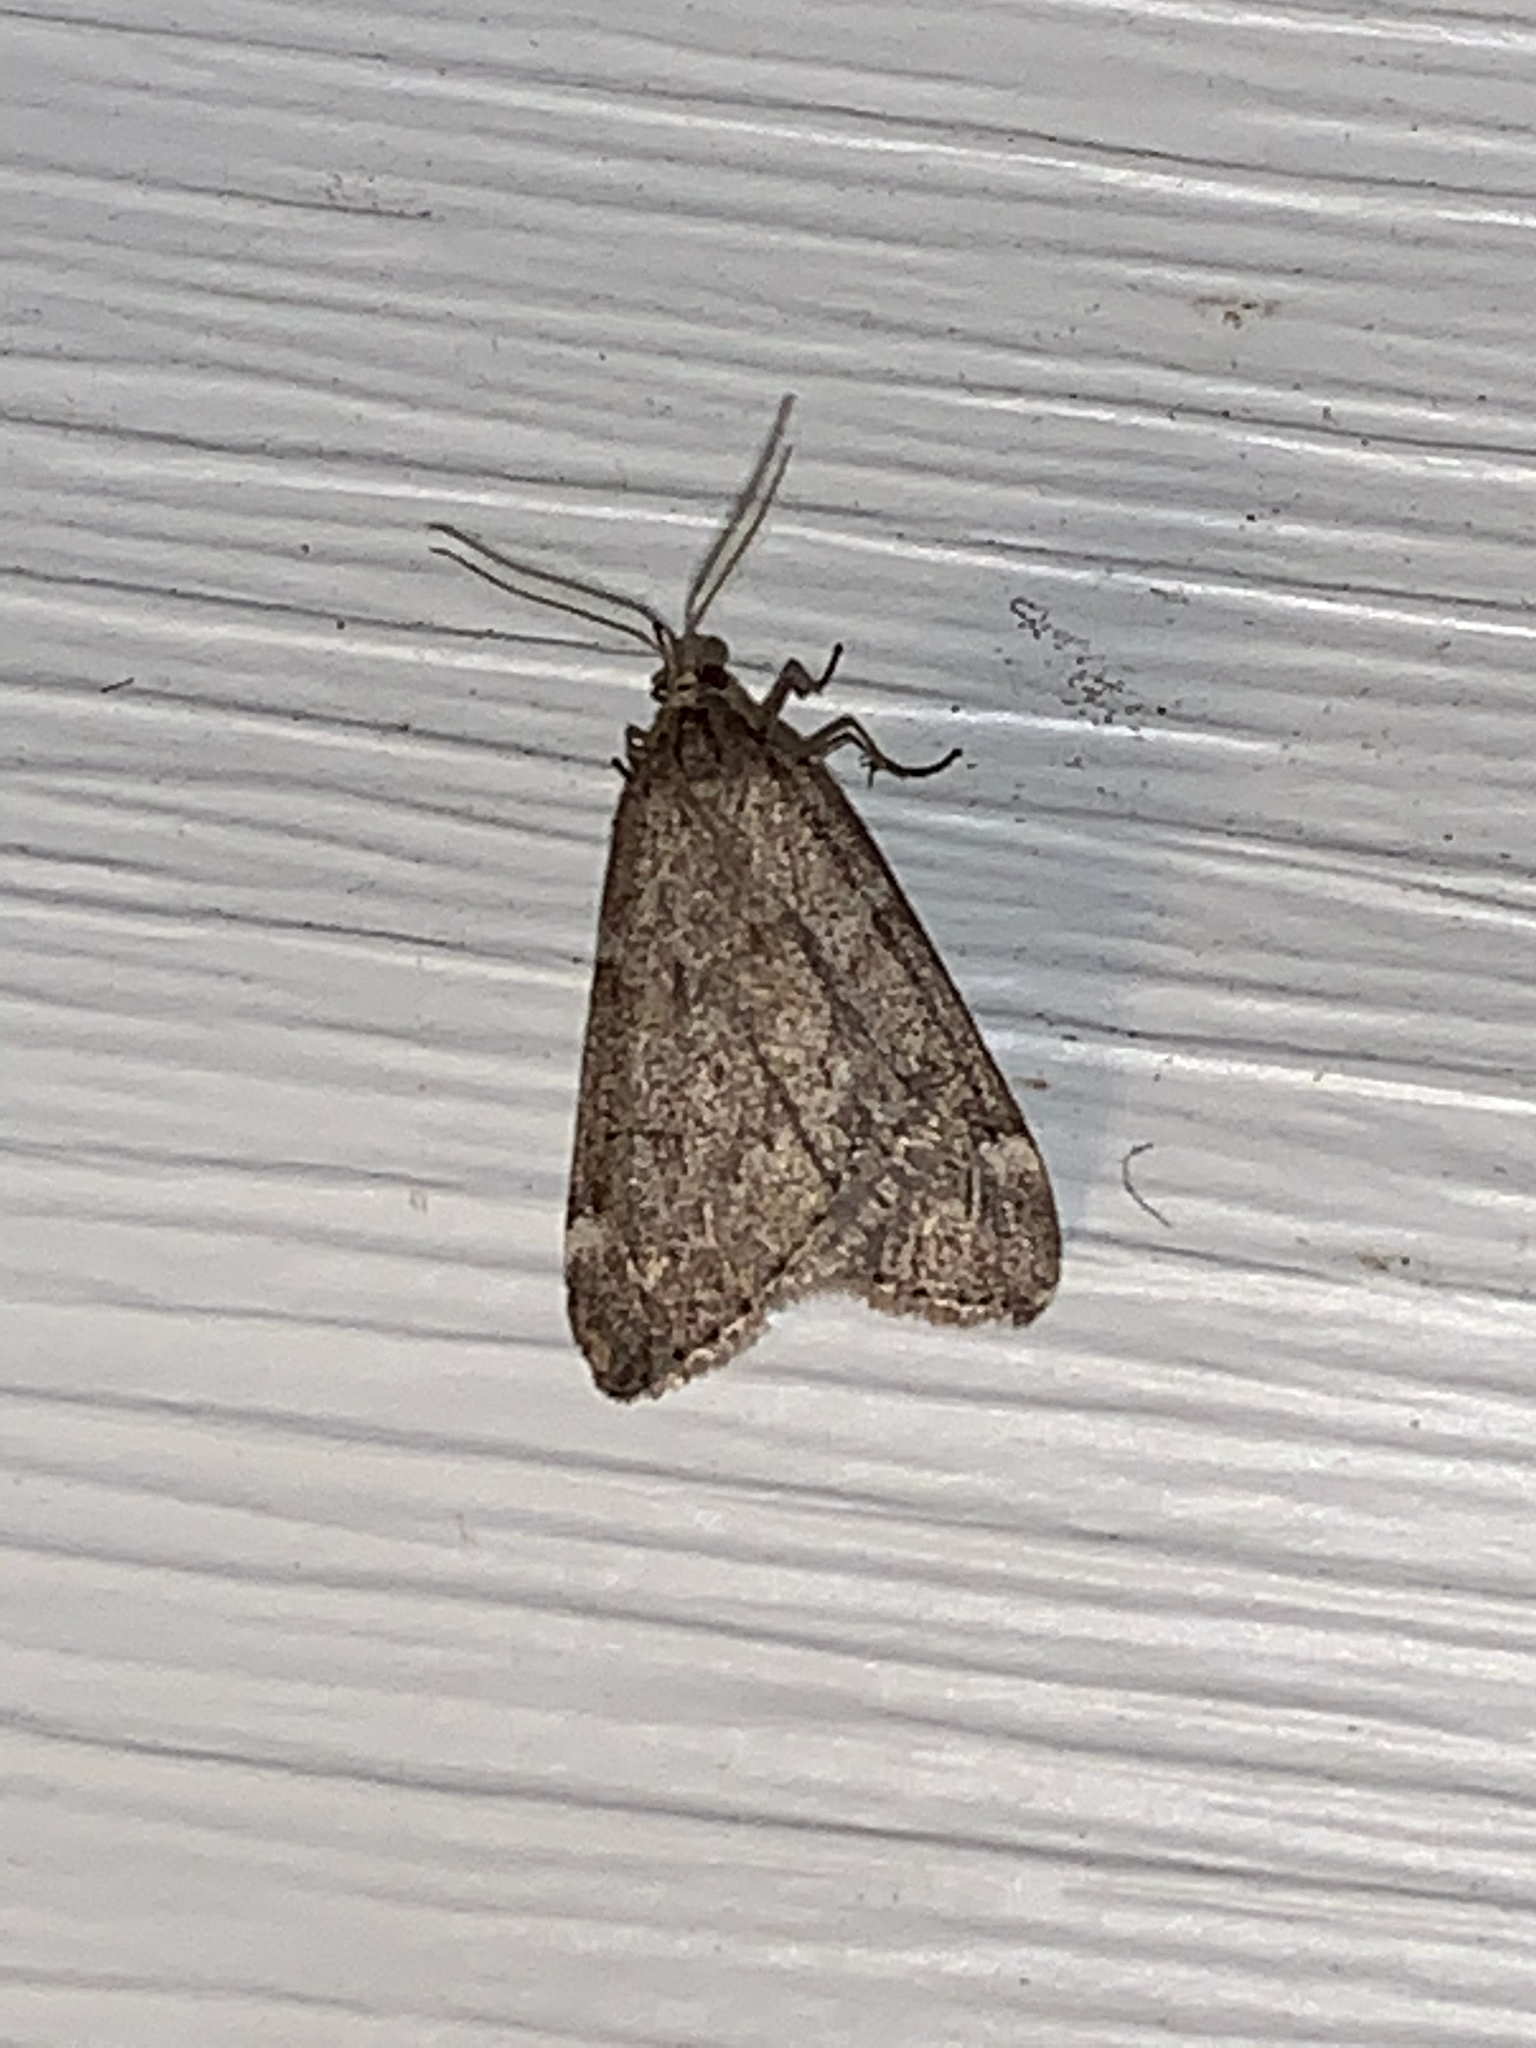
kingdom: Animalia
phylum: Arthropoda
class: Insecta
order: Lepidoptera
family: Geometridae
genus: Alsophila
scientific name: Alsophila pometaria
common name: Fall cankerworm
